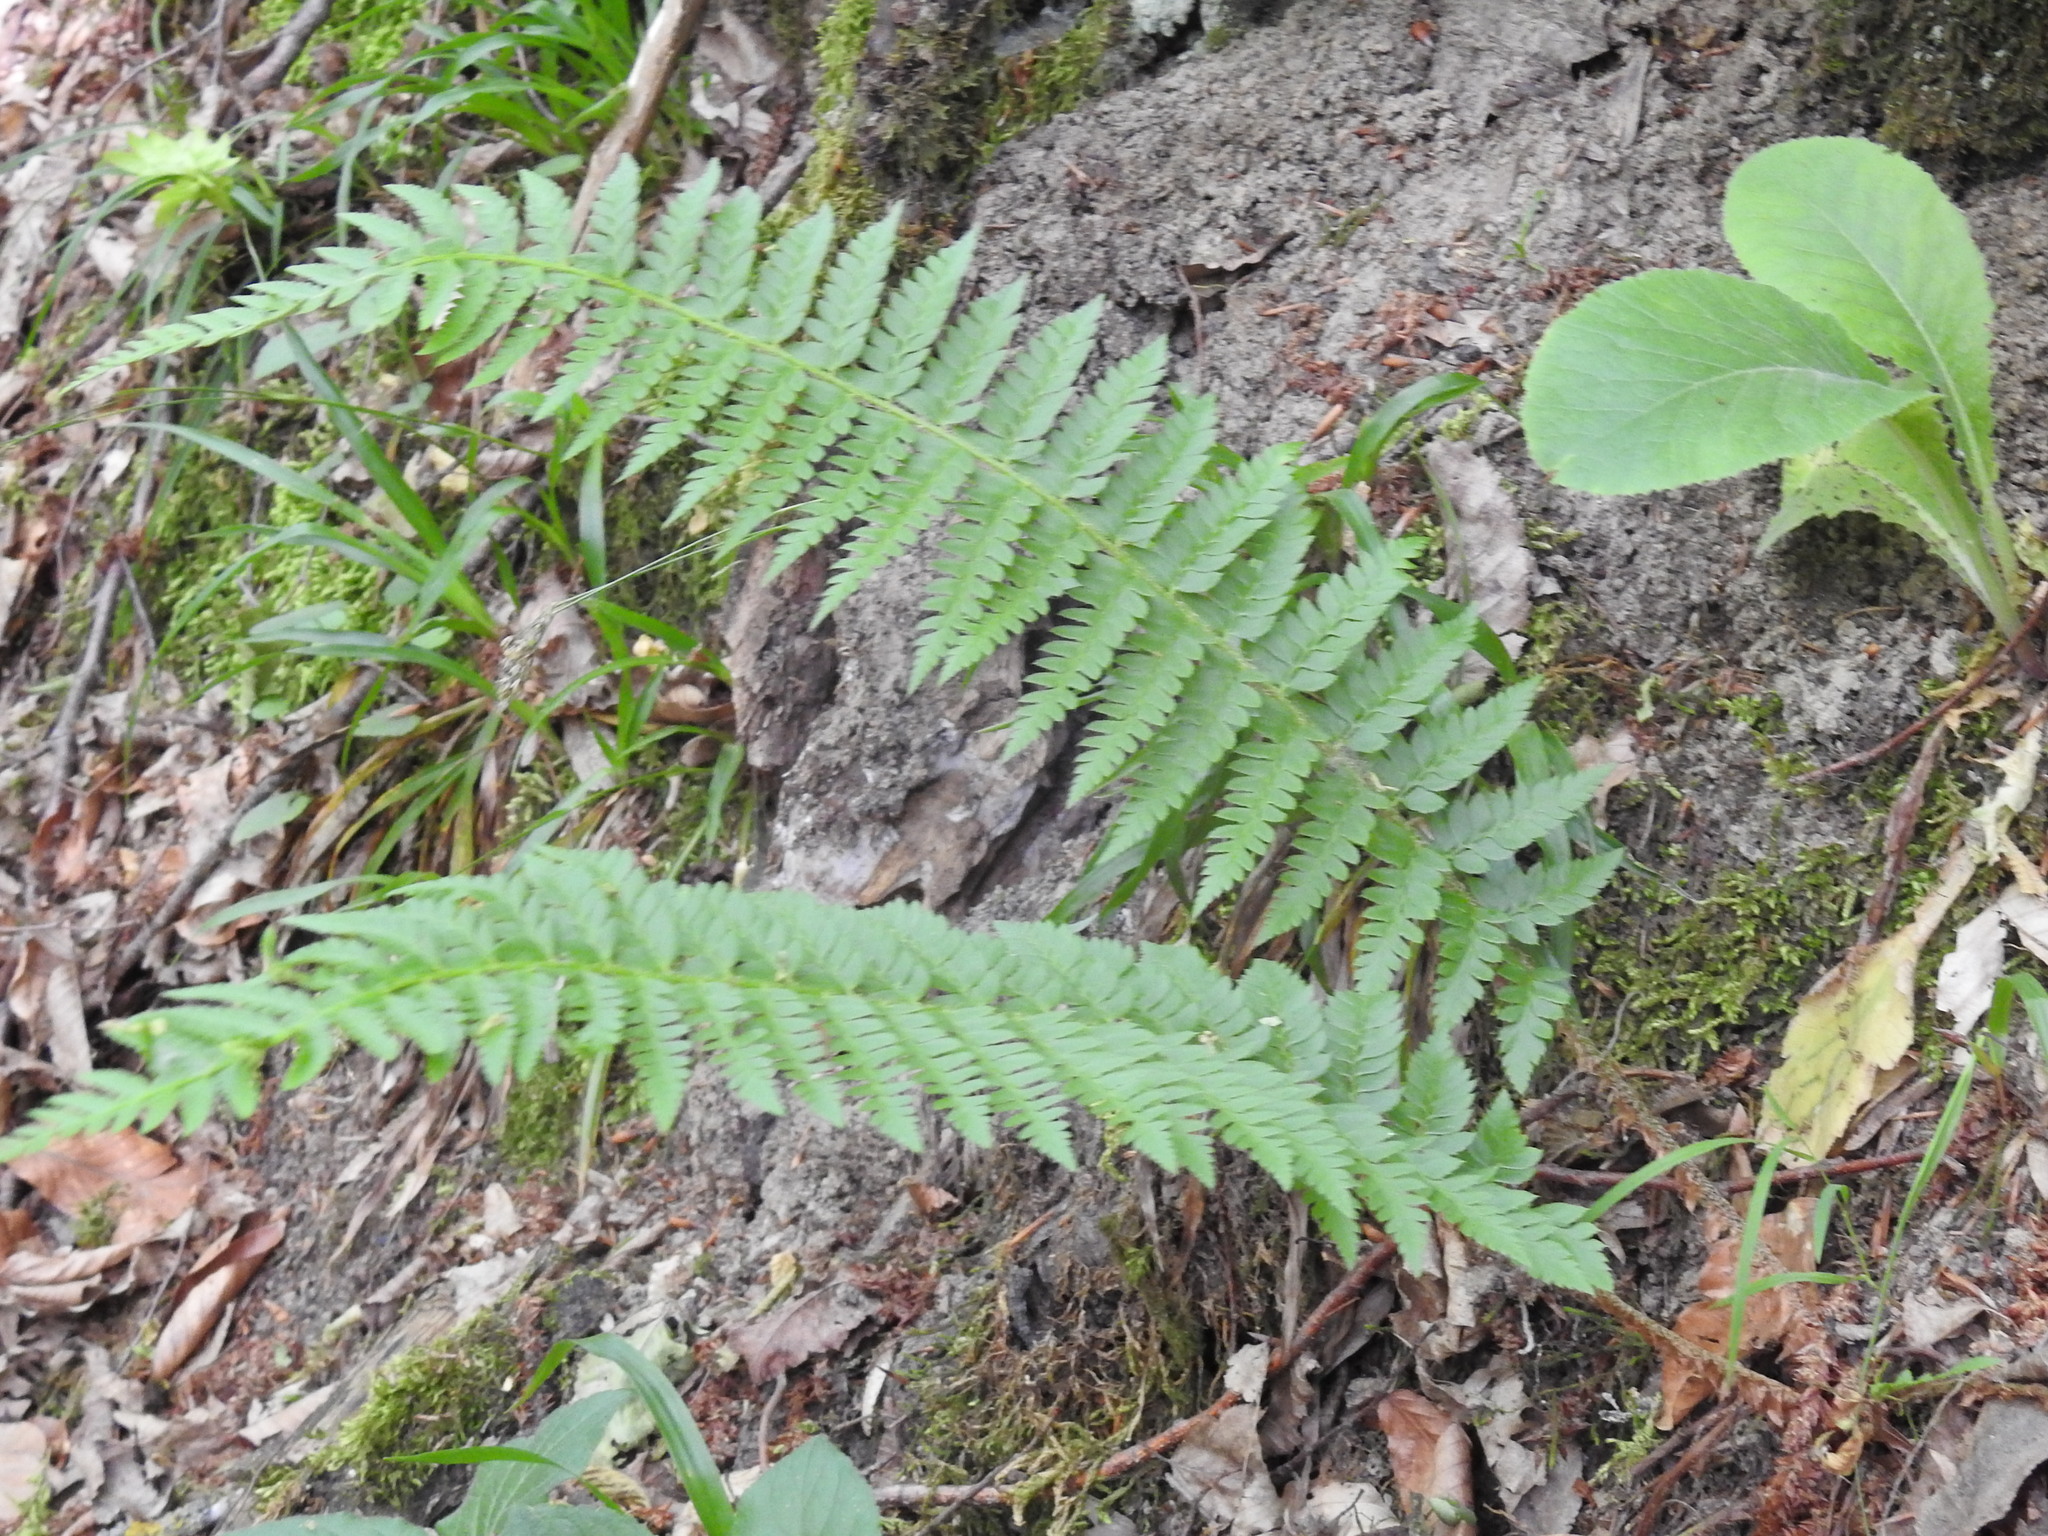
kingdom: Plantae
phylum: Tracheophyta
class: Polypodiopsida
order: Polypodiales
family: Dryopteridaceae
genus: Polystichum
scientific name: Polystichum aculeatum
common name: Hard shield-fern
